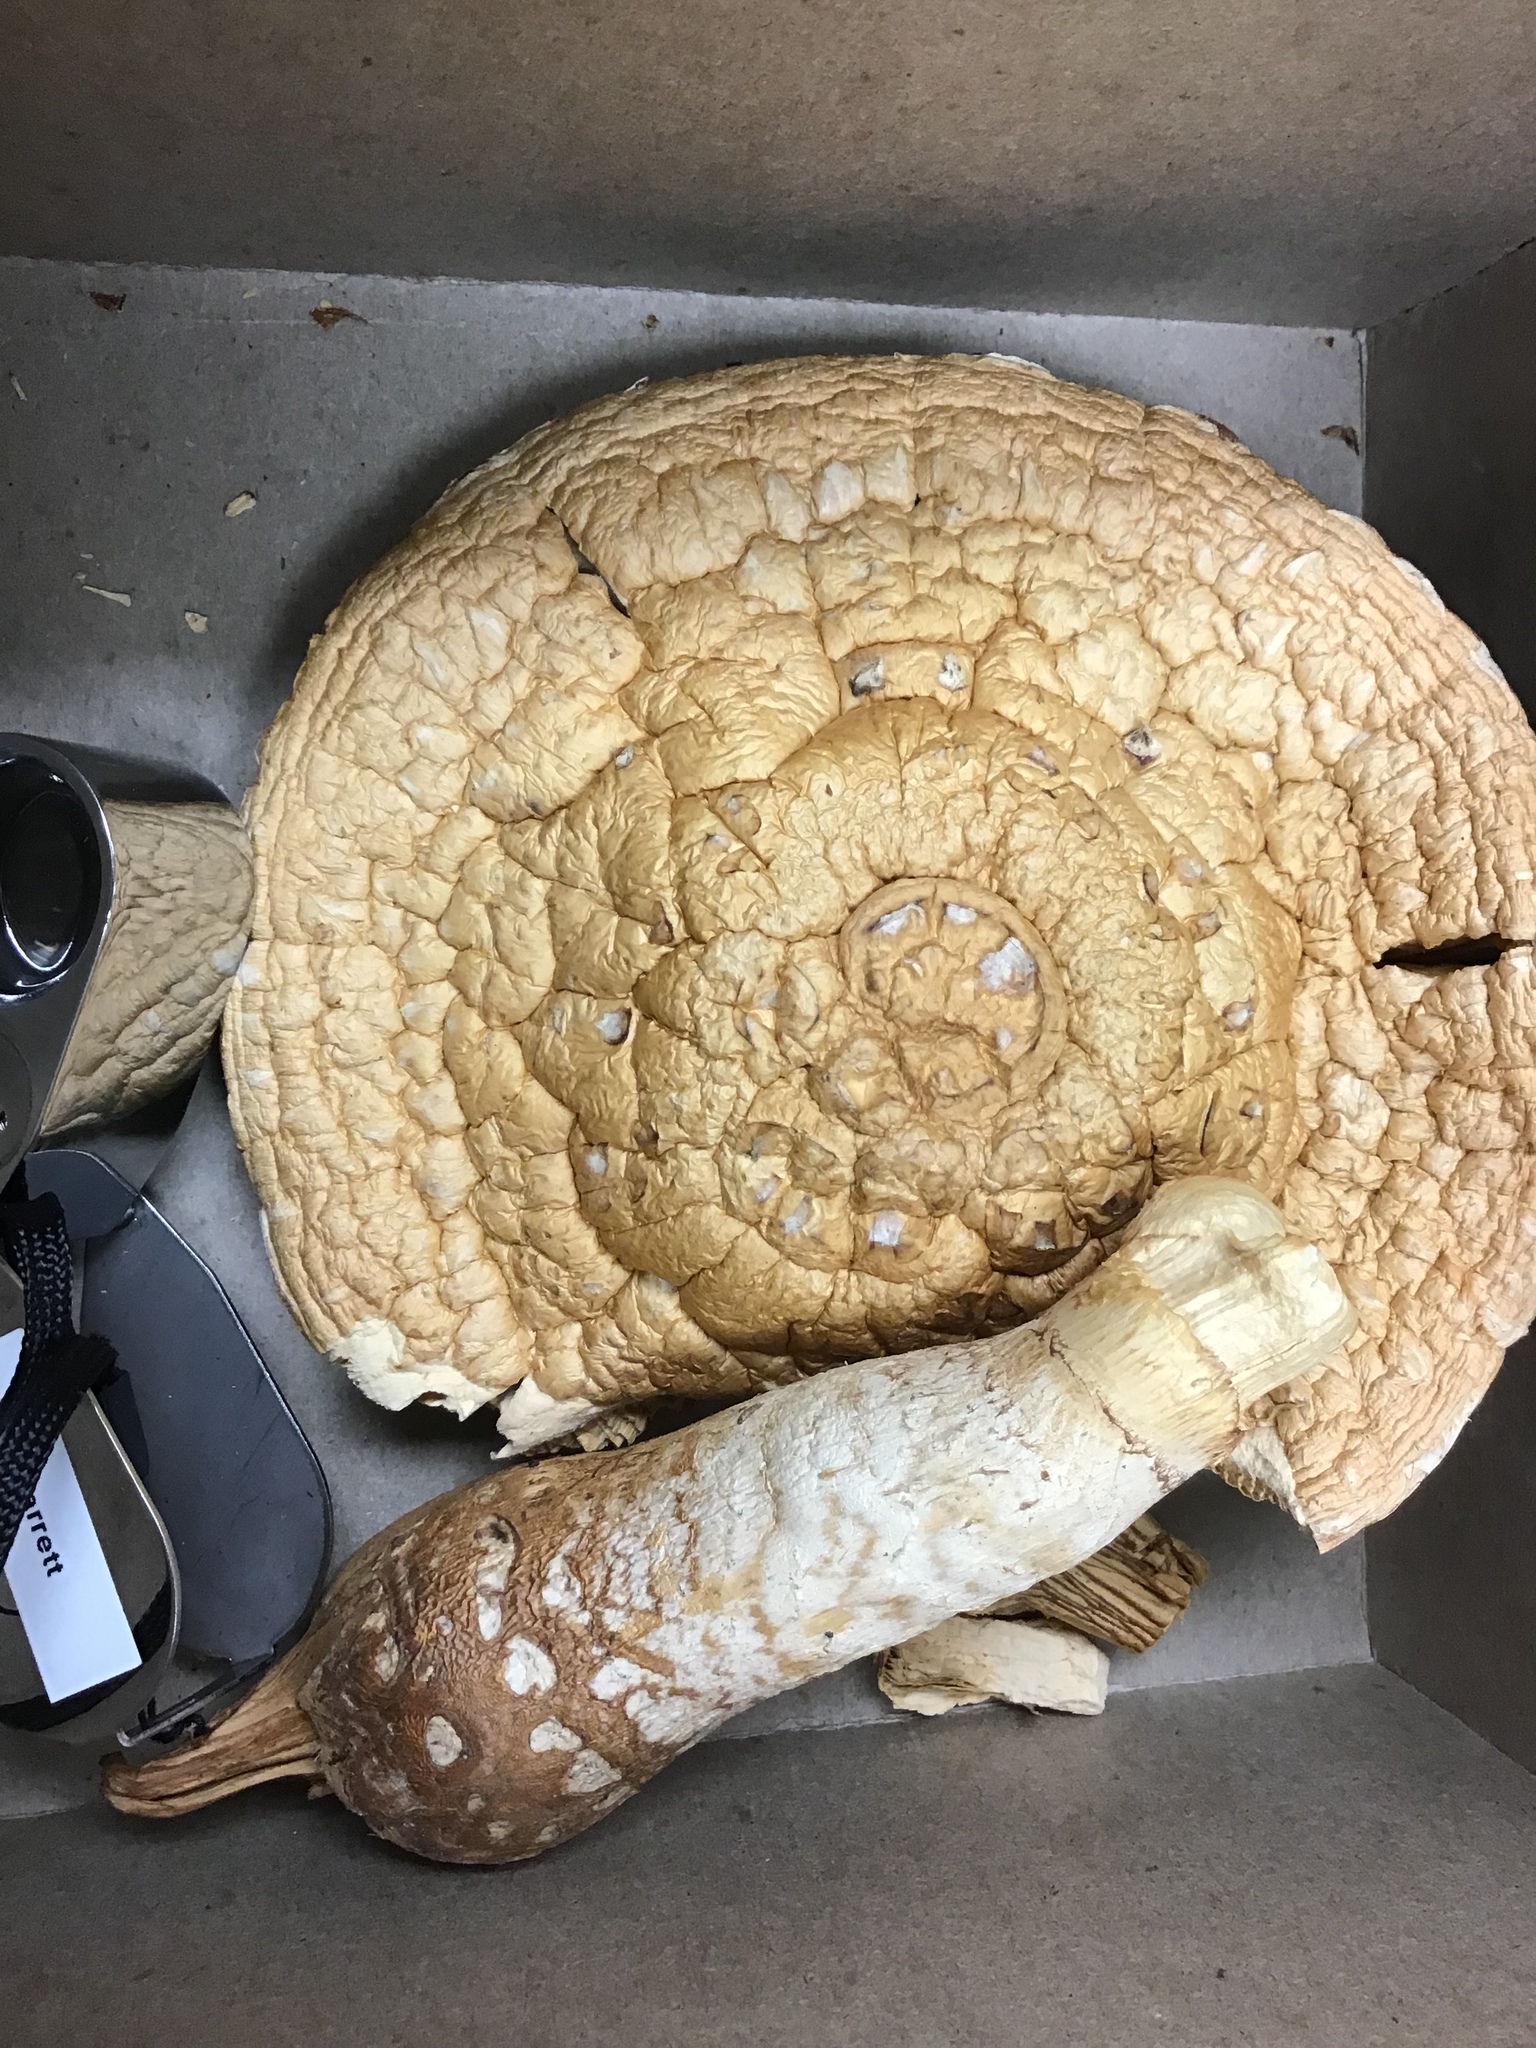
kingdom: Fungi
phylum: Basidiomycota
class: Agaricomycetes
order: Agaricales
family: Strophariaceae
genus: Pholiota
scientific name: Pholiota populnea
